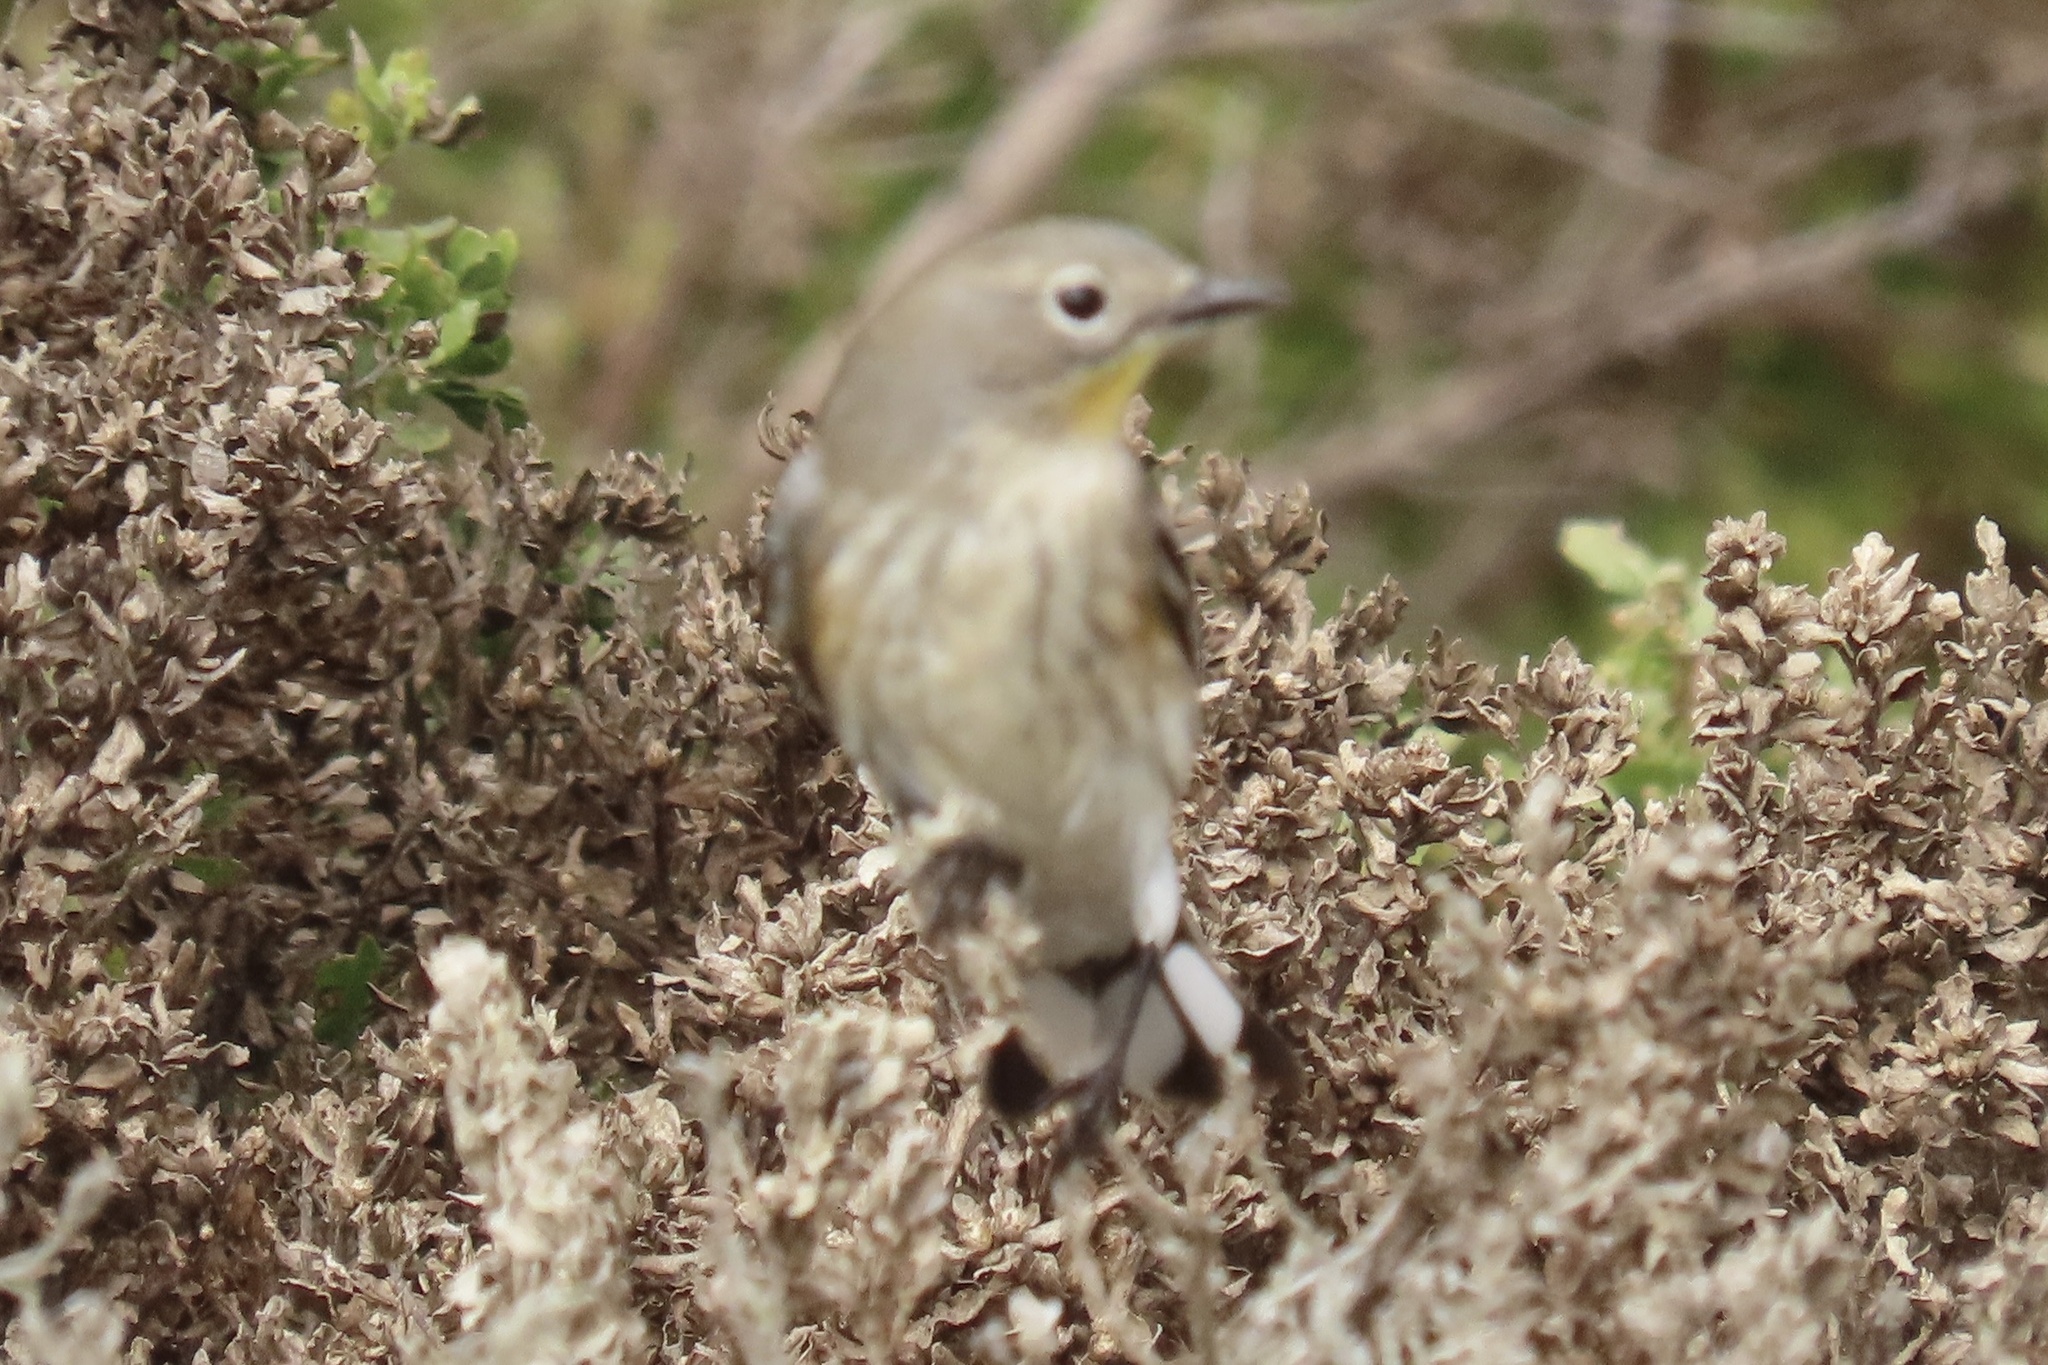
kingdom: Animalia
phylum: Chordata
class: Aves
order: Passeriformes
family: Parulidae
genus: Setophaga
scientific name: Setophaga coronata
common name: Myrtle warbler
